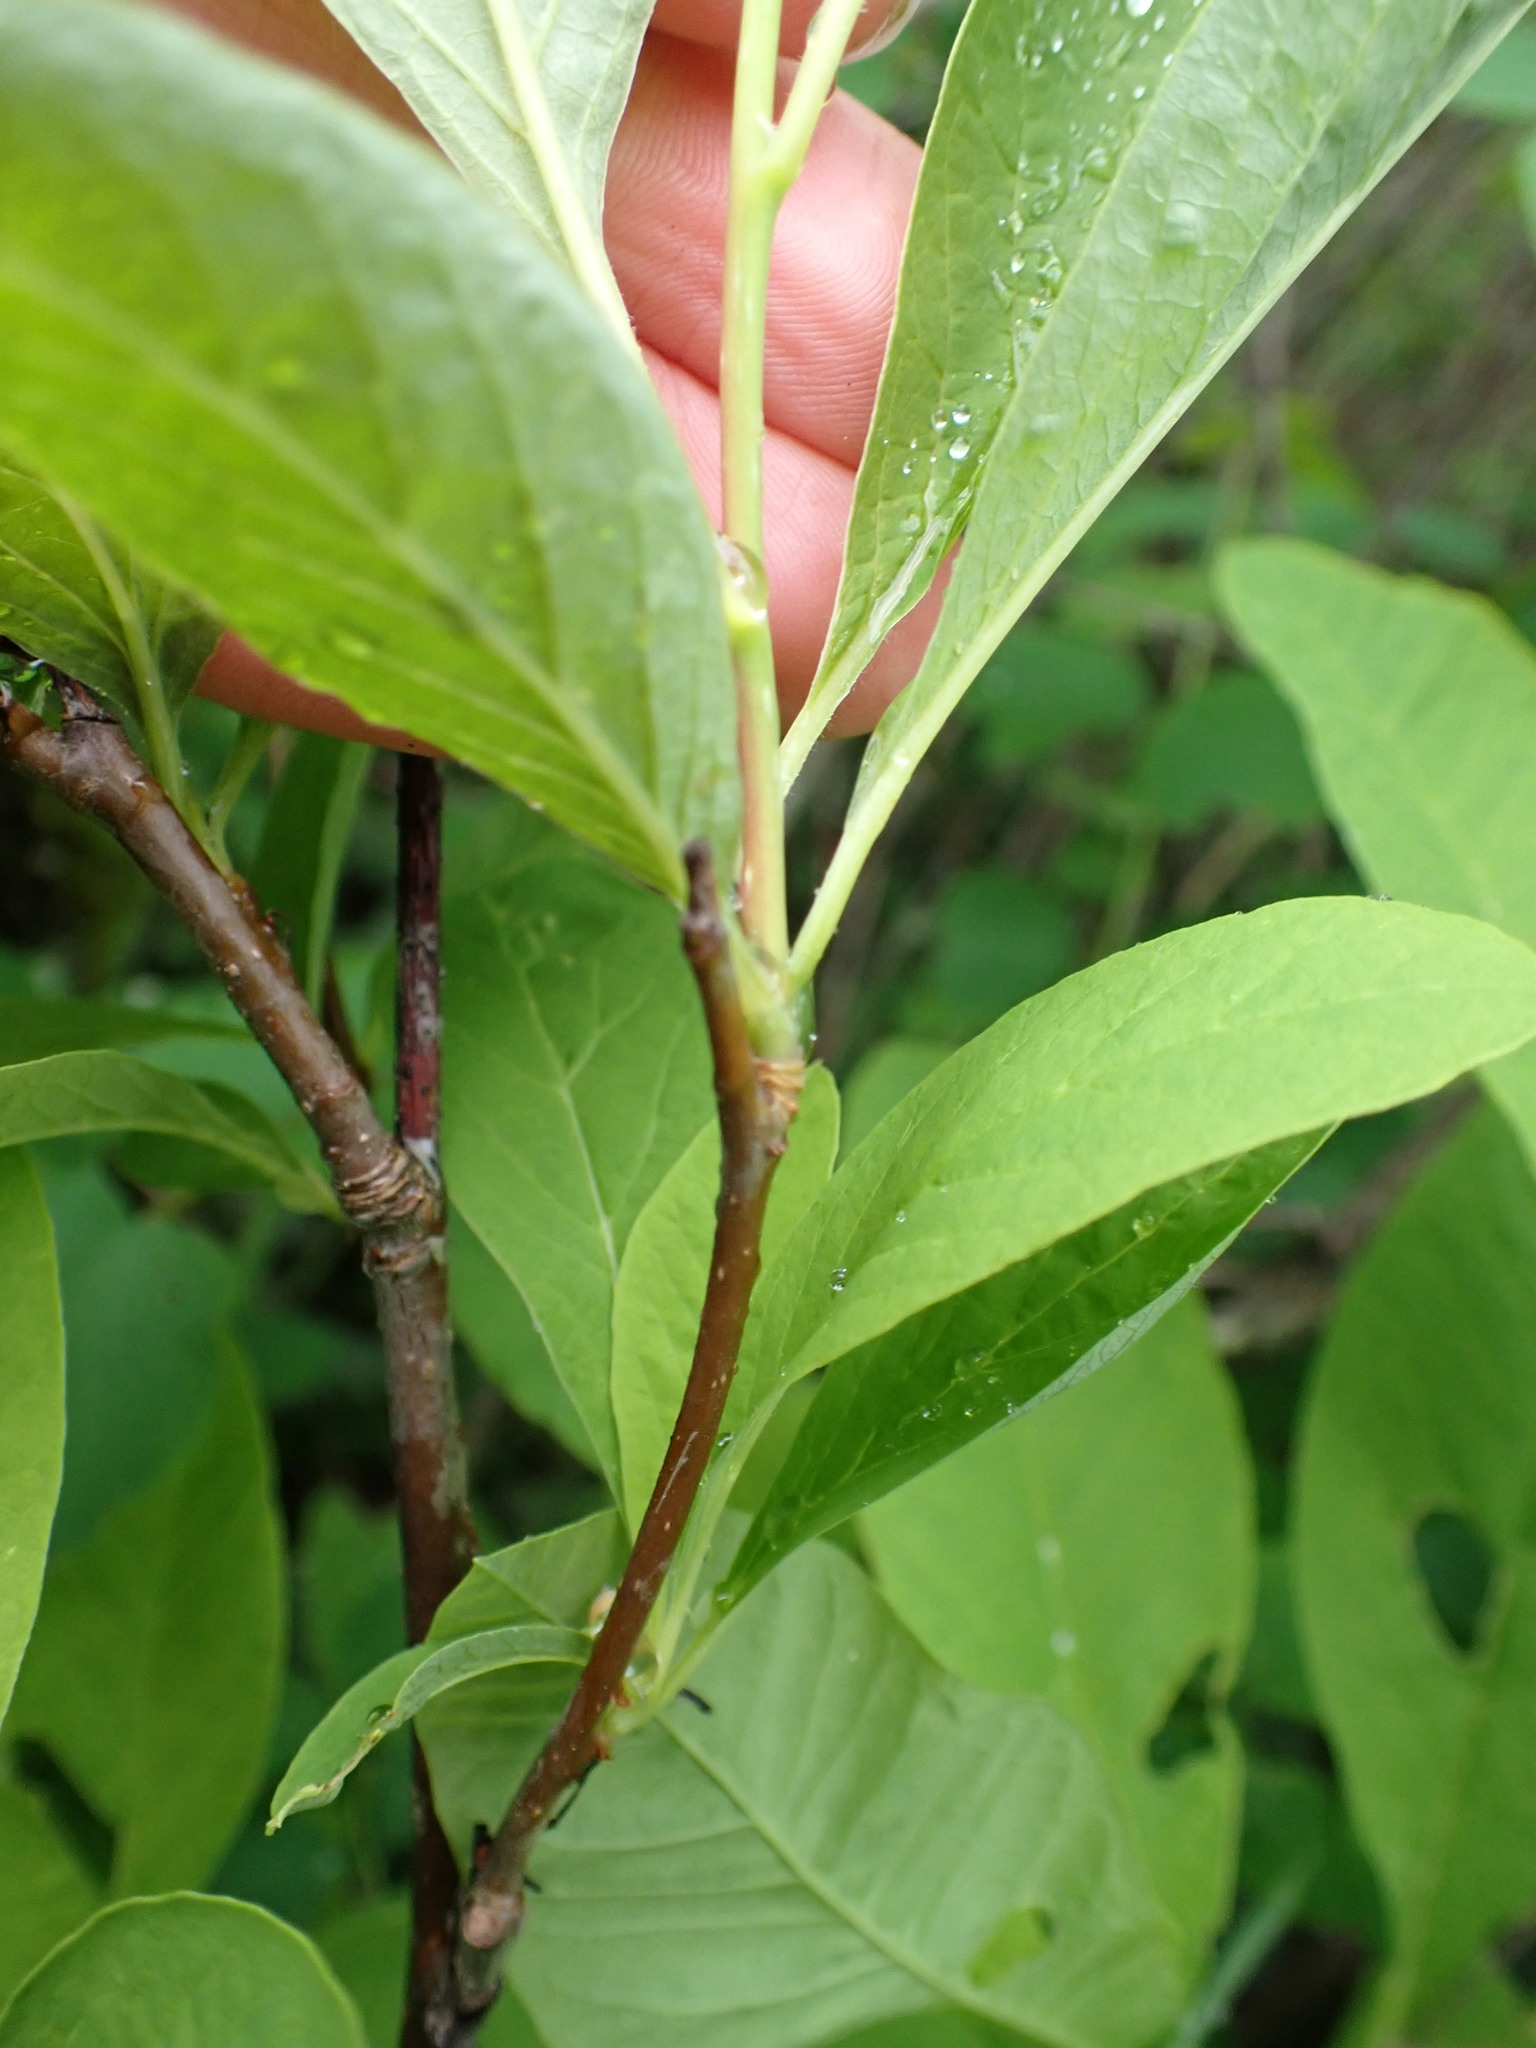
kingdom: Plantae
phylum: Tracheophyta
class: Magnoliopsida
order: Rosales
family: Rosaceae
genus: Oemleria
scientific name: Oemleria cerasiformis
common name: Osoberry
